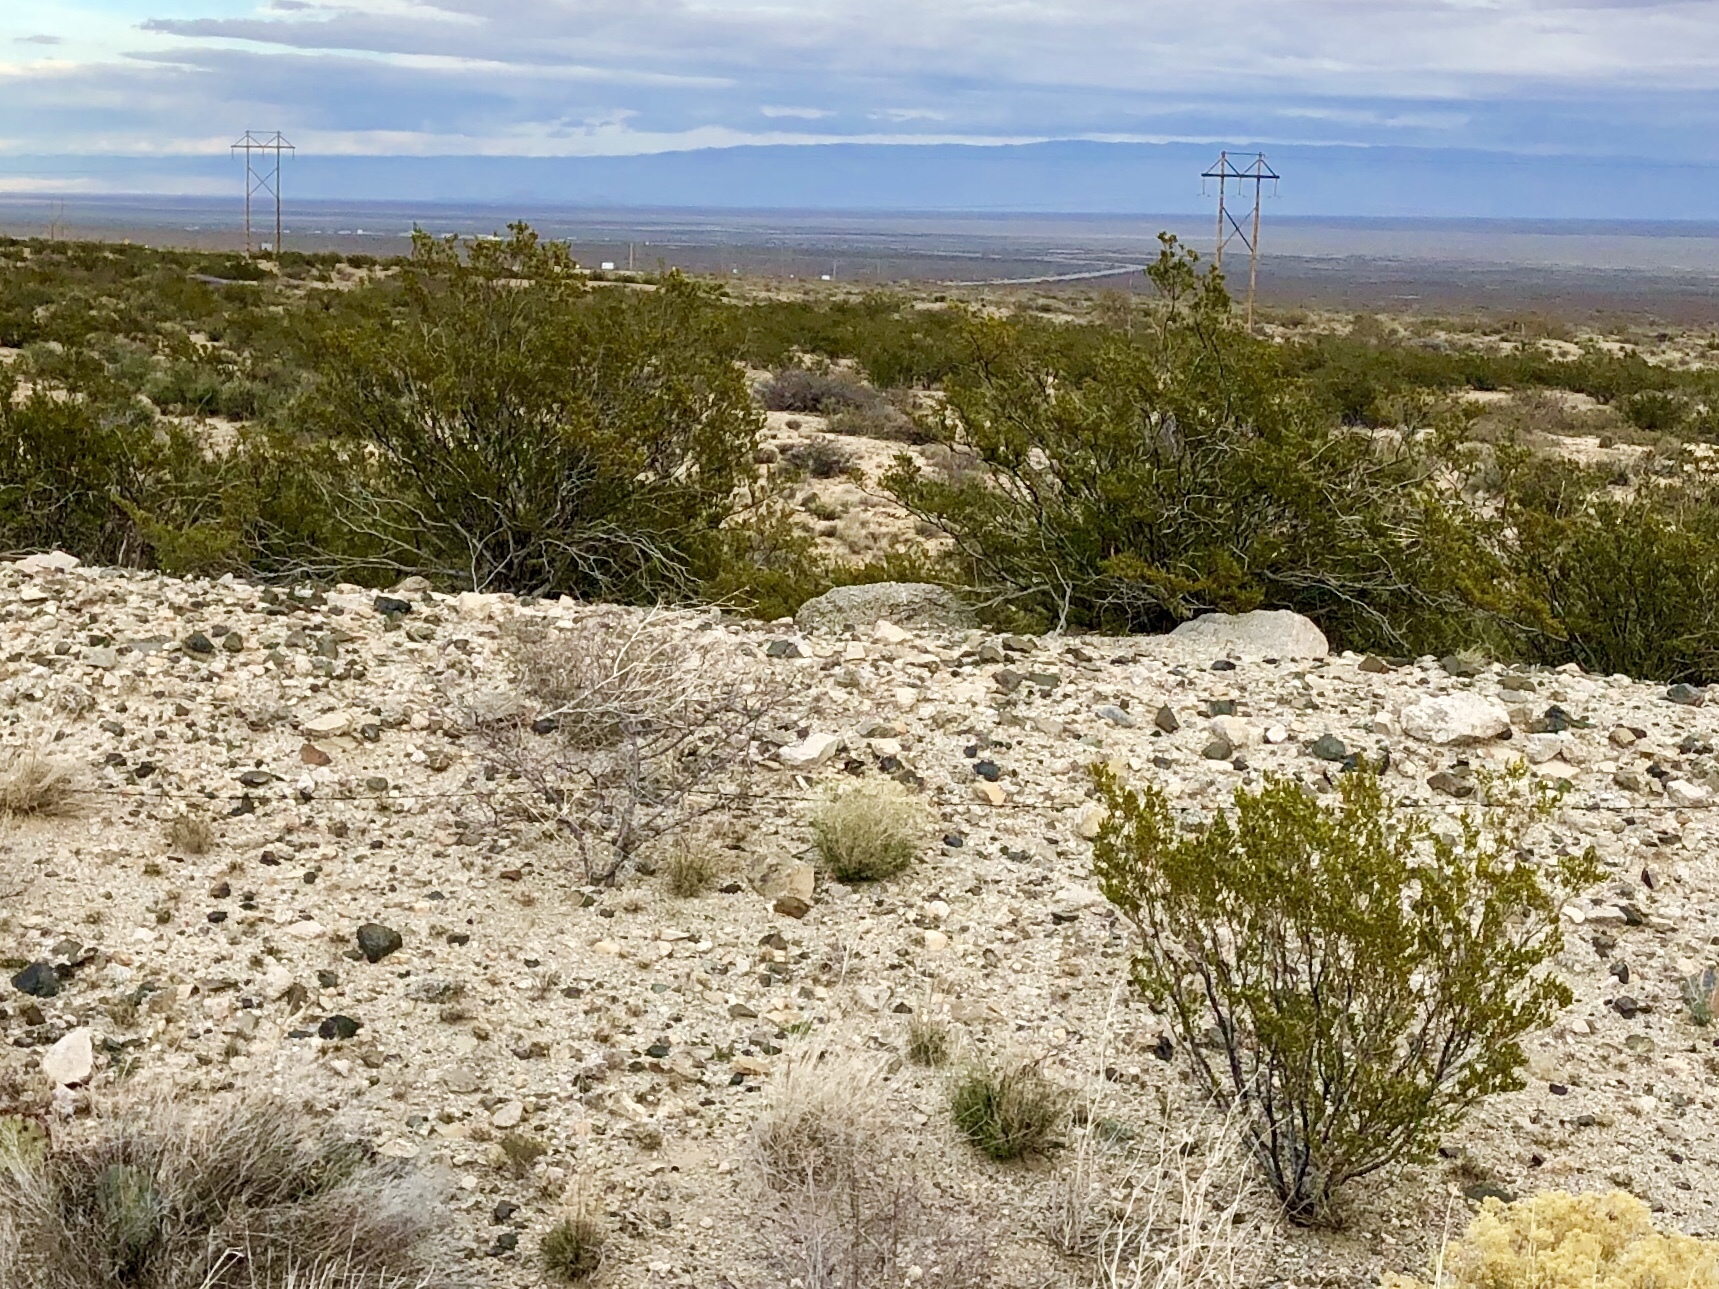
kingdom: Plantae
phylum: Tracheophyta
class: Magnoliopsida
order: Zygophyllales
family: Zygophyllaceae
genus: Larrea
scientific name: Larrea tridentata
